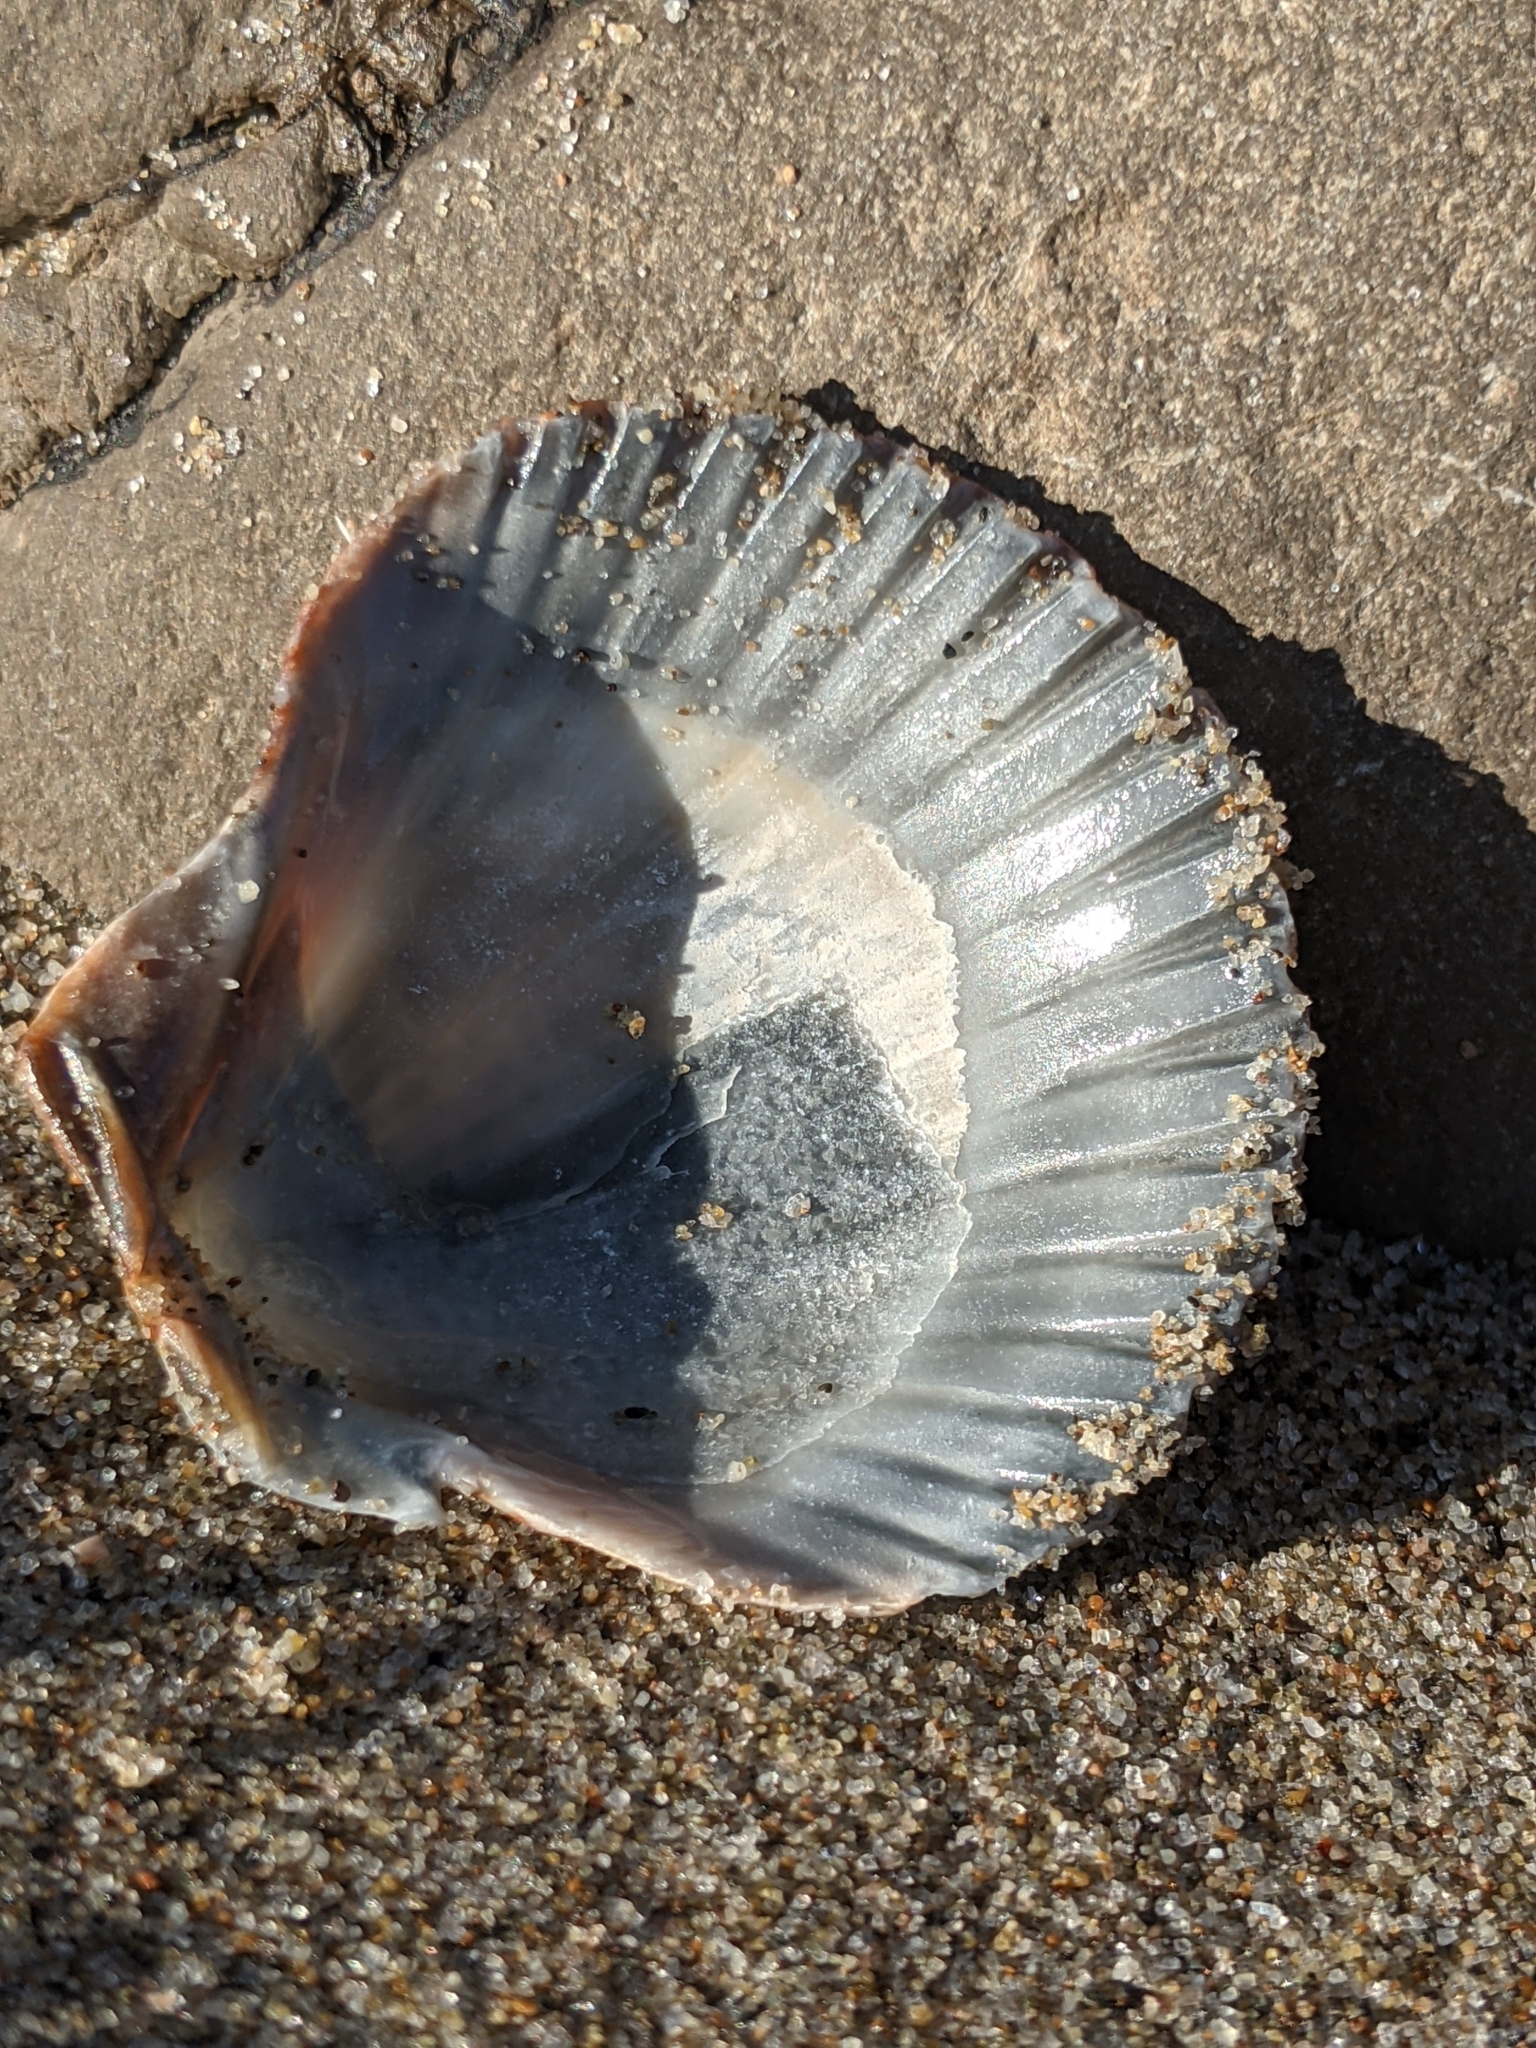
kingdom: Animalia
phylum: Mollusca
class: Bivalvia
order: Pectinida
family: Pectinidae
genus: Argopecten
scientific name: Argopecten ventricosus
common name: Catarina scallop
